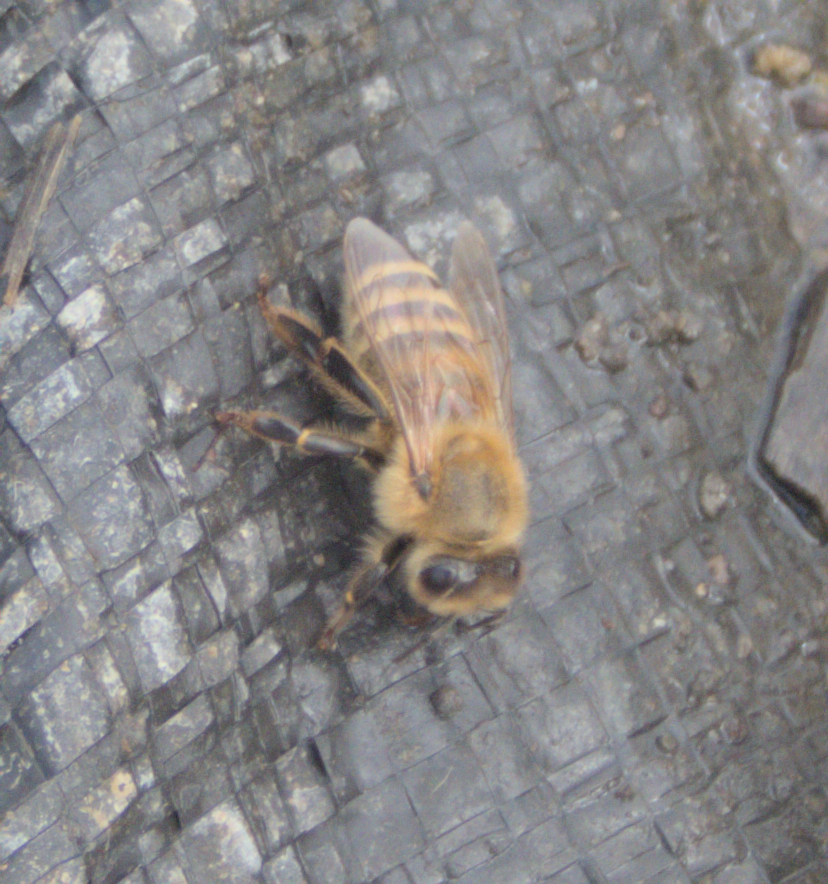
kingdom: Animalia
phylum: Arthropoda
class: Insecta
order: Hymenoptera
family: Apidae
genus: Apis
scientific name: Apis mellifera
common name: Honey bee
